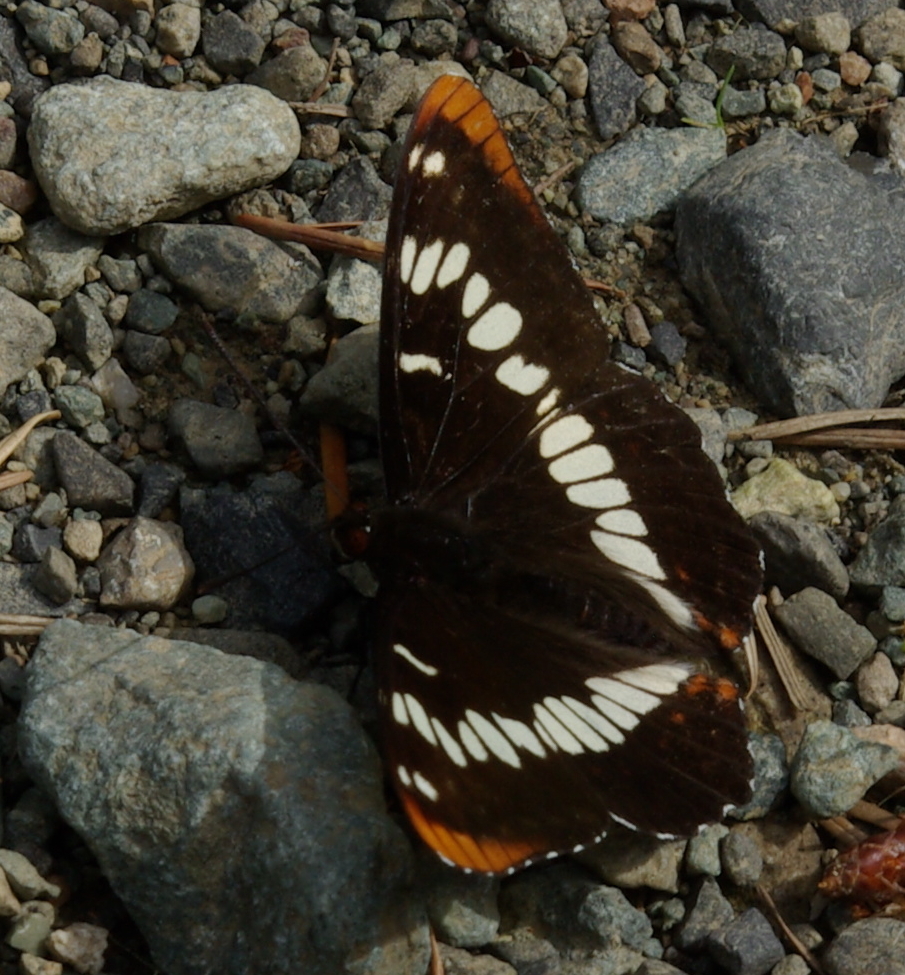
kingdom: Animalia
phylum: Arthropoda
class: Insecta
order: Lepidoptera
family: Nymphalidae
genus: Limenitis
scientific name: Limenitis lorquini
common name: Lorquin's admiral
